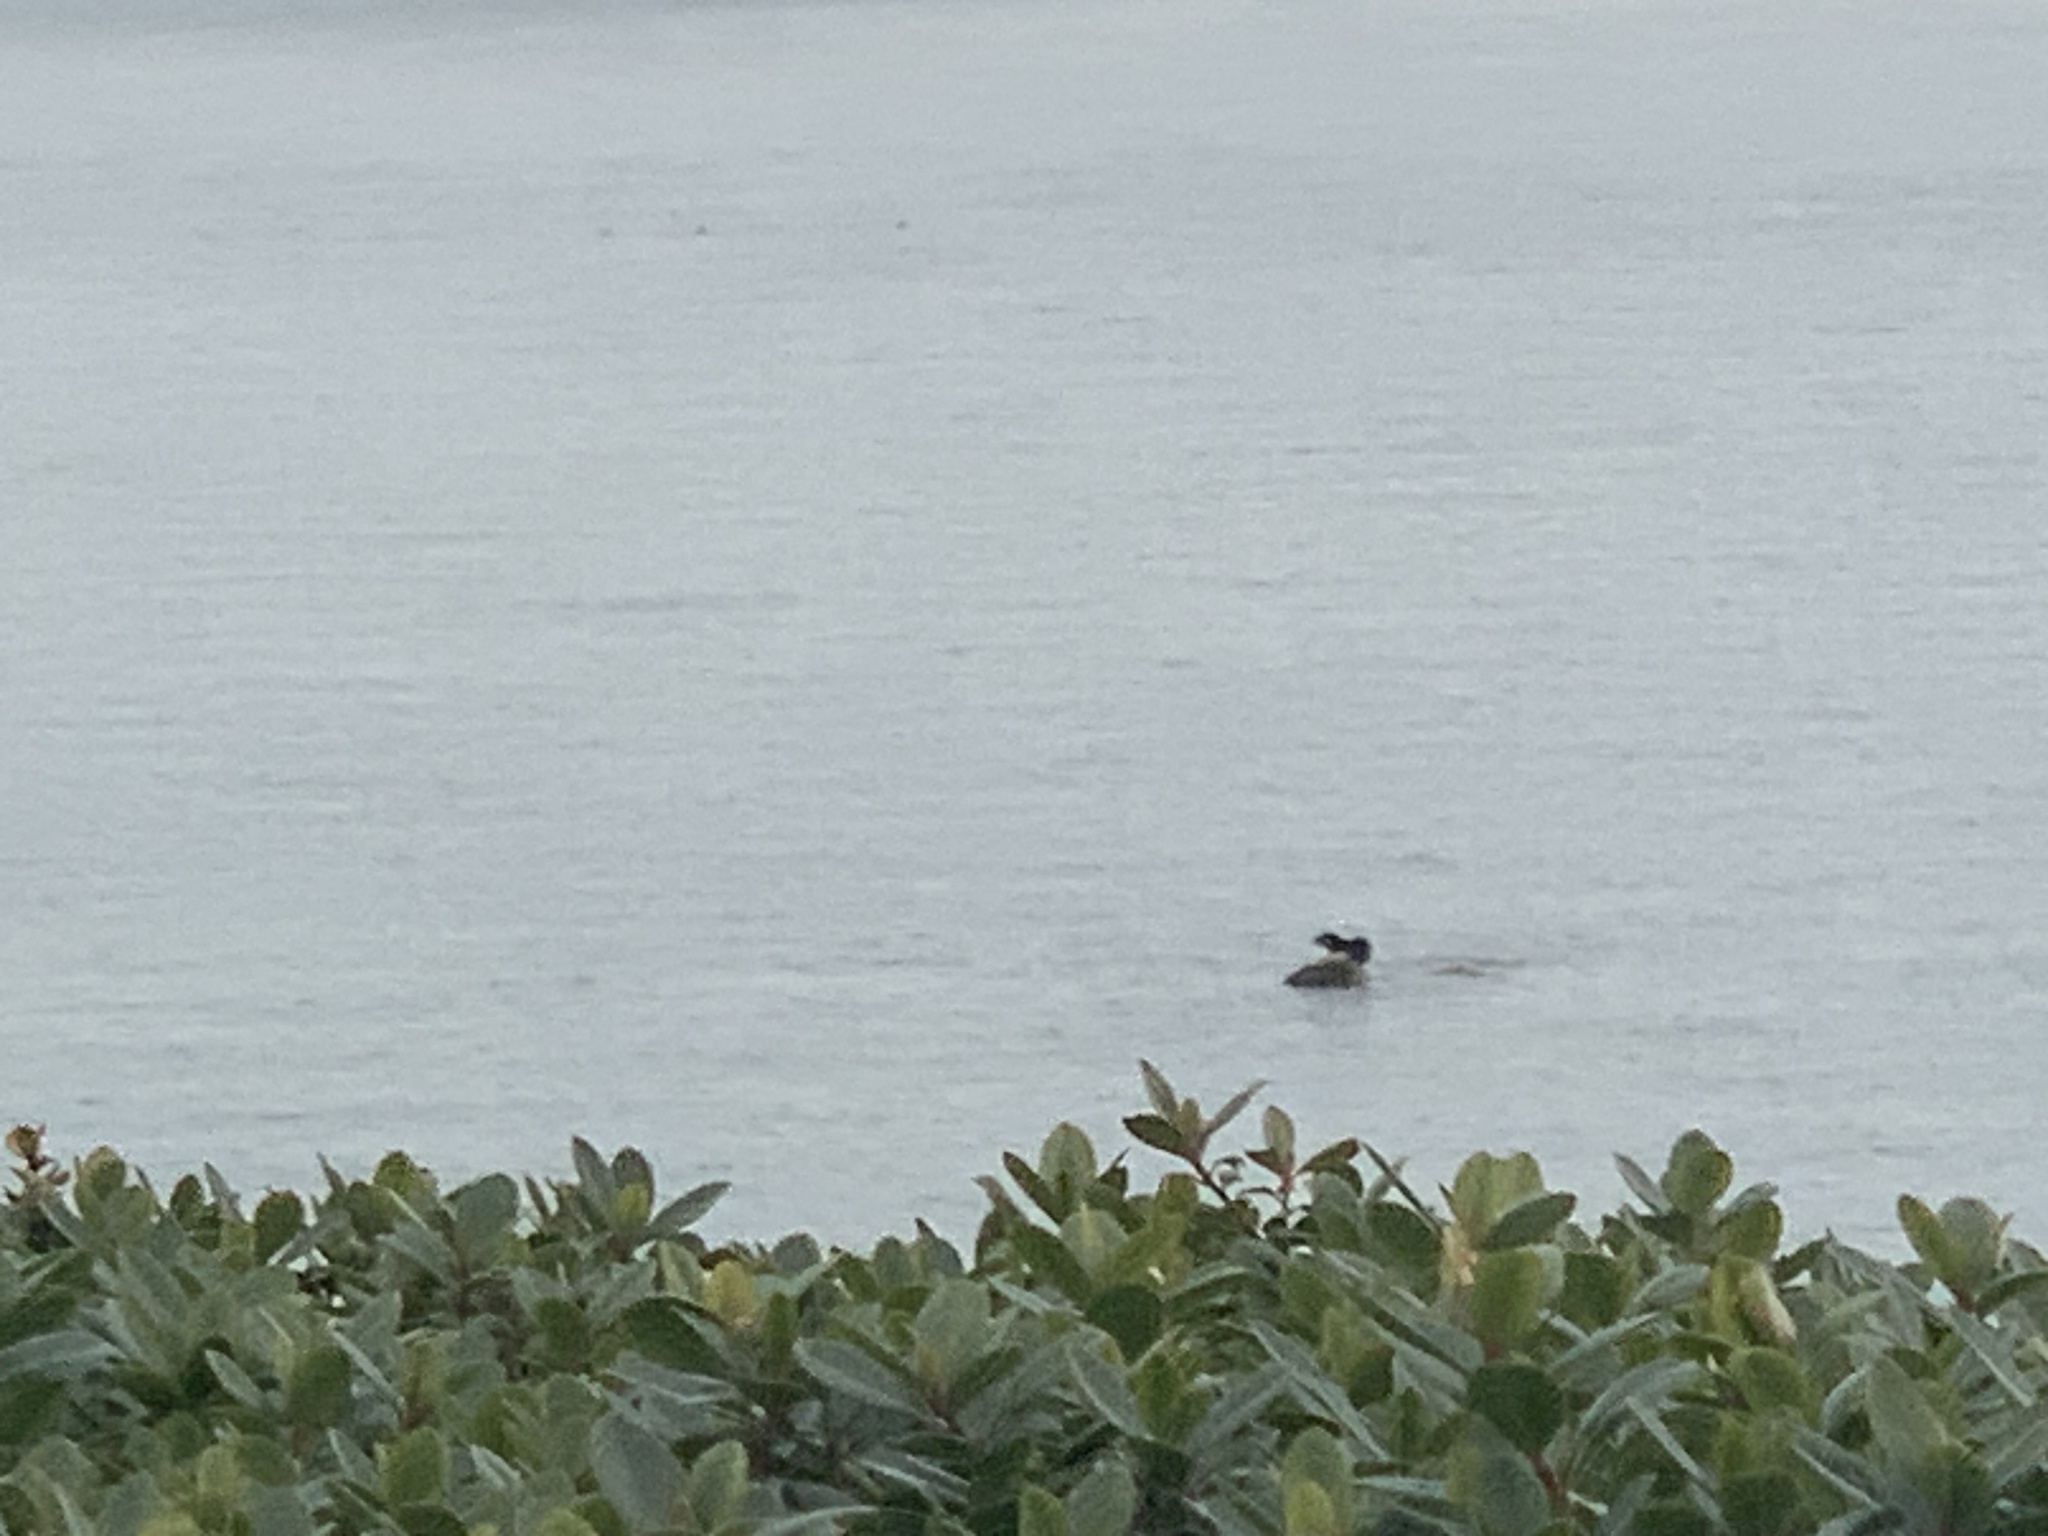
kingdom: Animalia
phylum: Chordata
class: Mammalia
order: Carnivora
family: Mustelidae
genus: Lontra
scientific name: Lontra canadensis
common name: North american river otter
